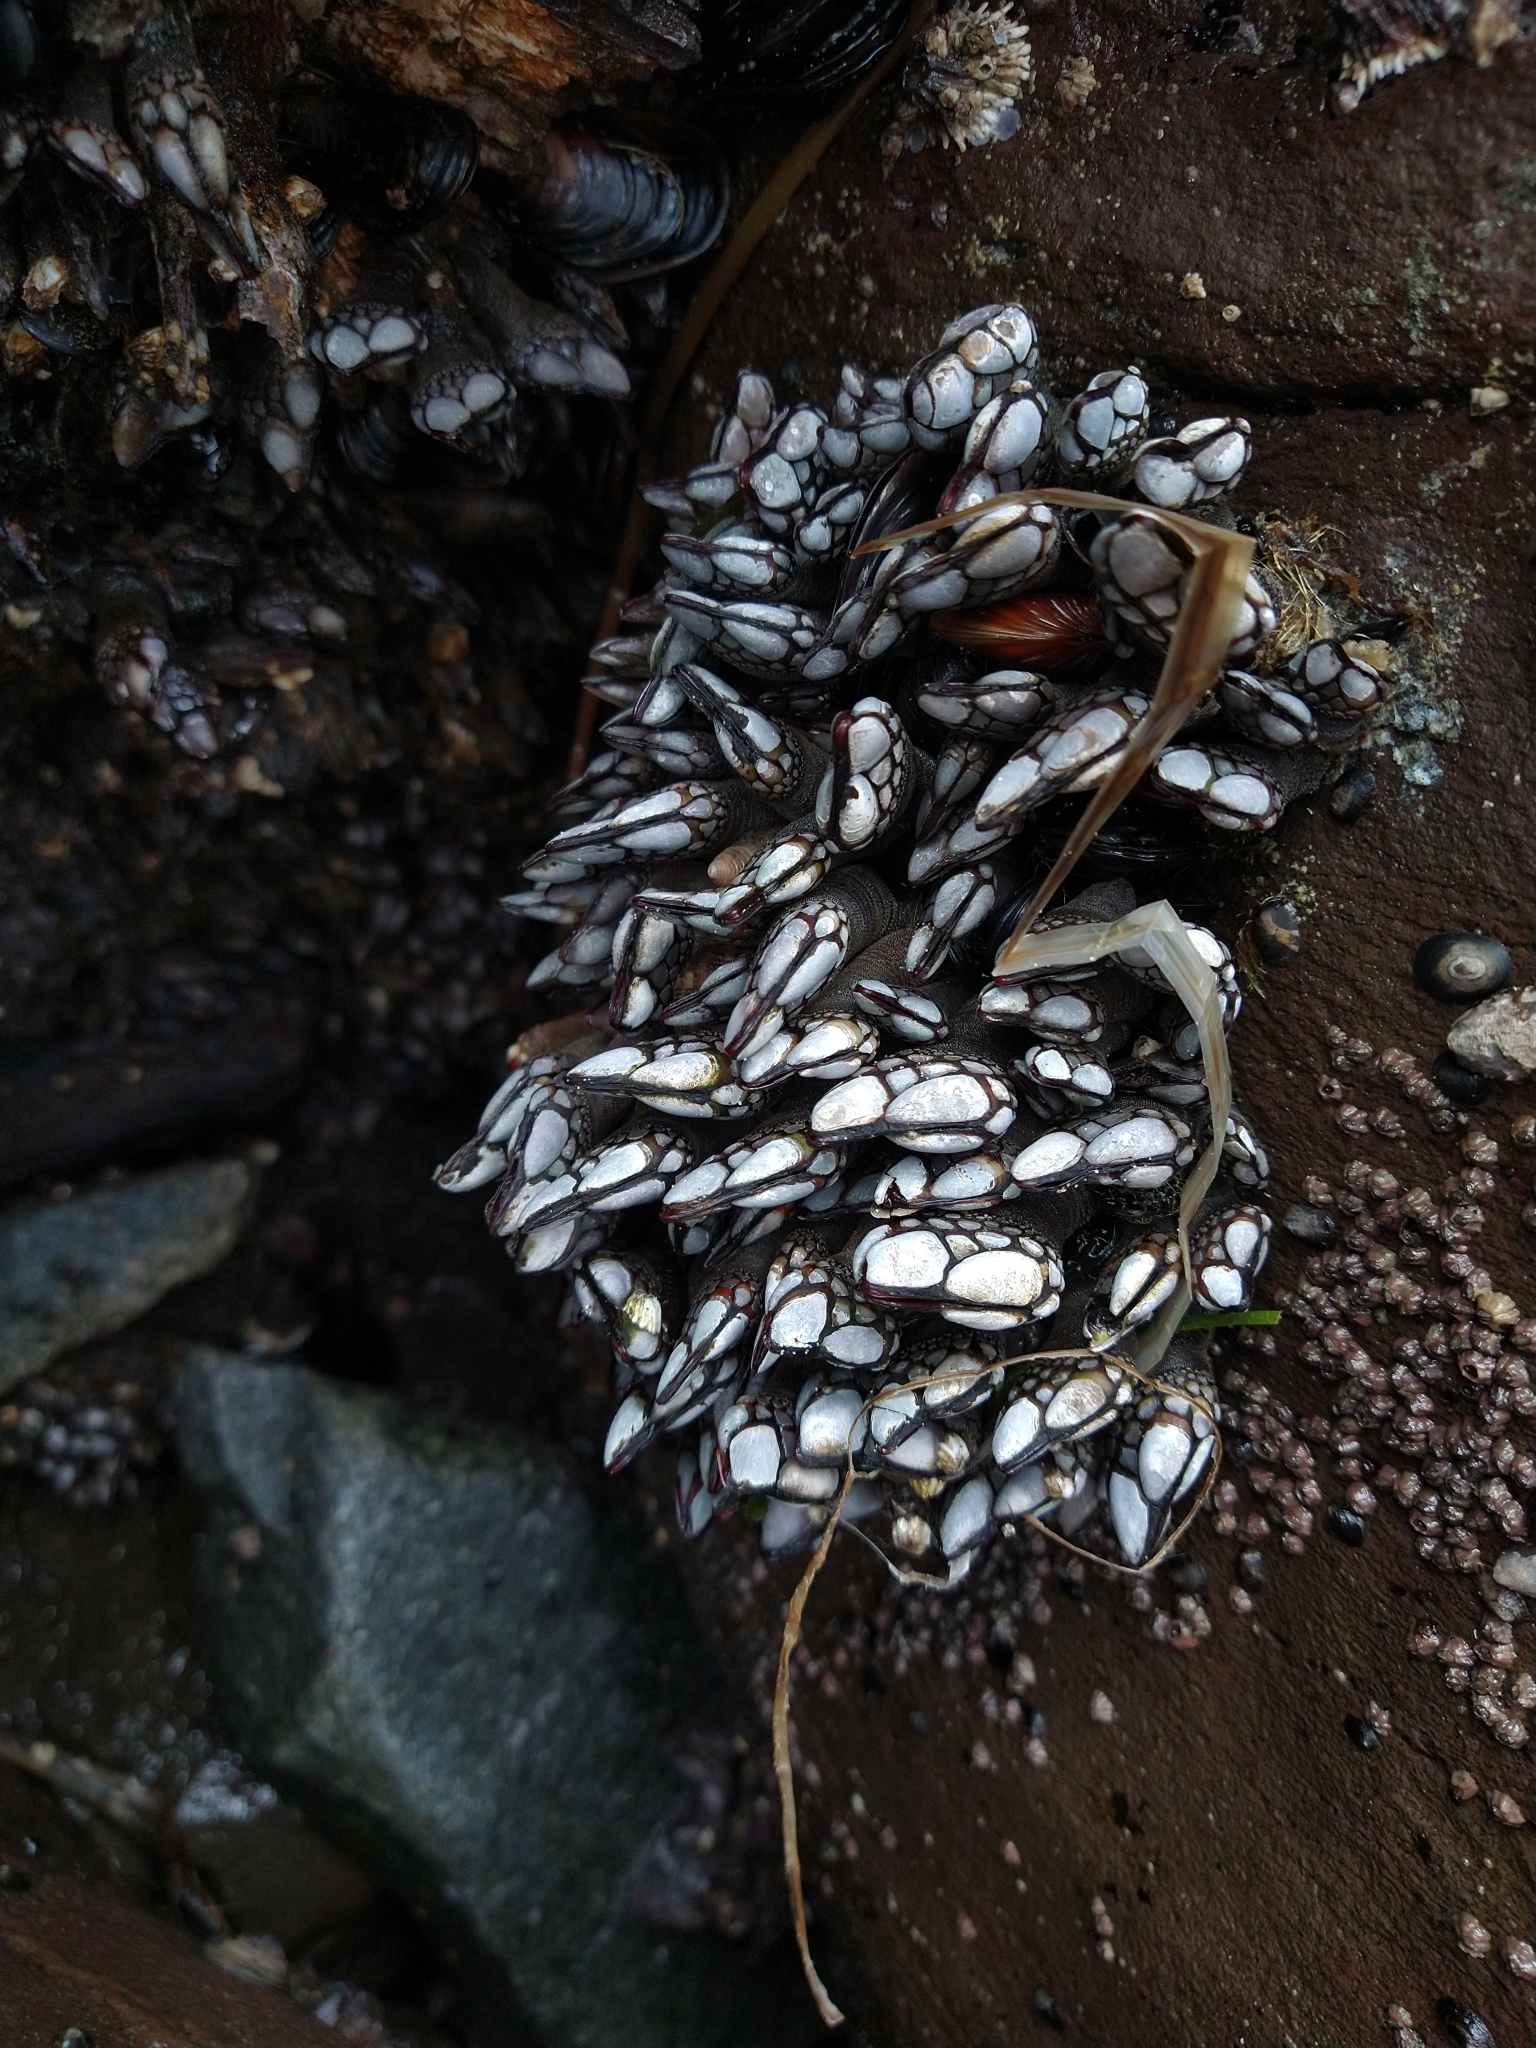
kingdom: Animalia
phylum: Arthropoda
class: Maxillopoda
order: Pedunculata
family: Pollicipedidae
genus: Pollicipes
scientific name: Pollicipes polymerus
